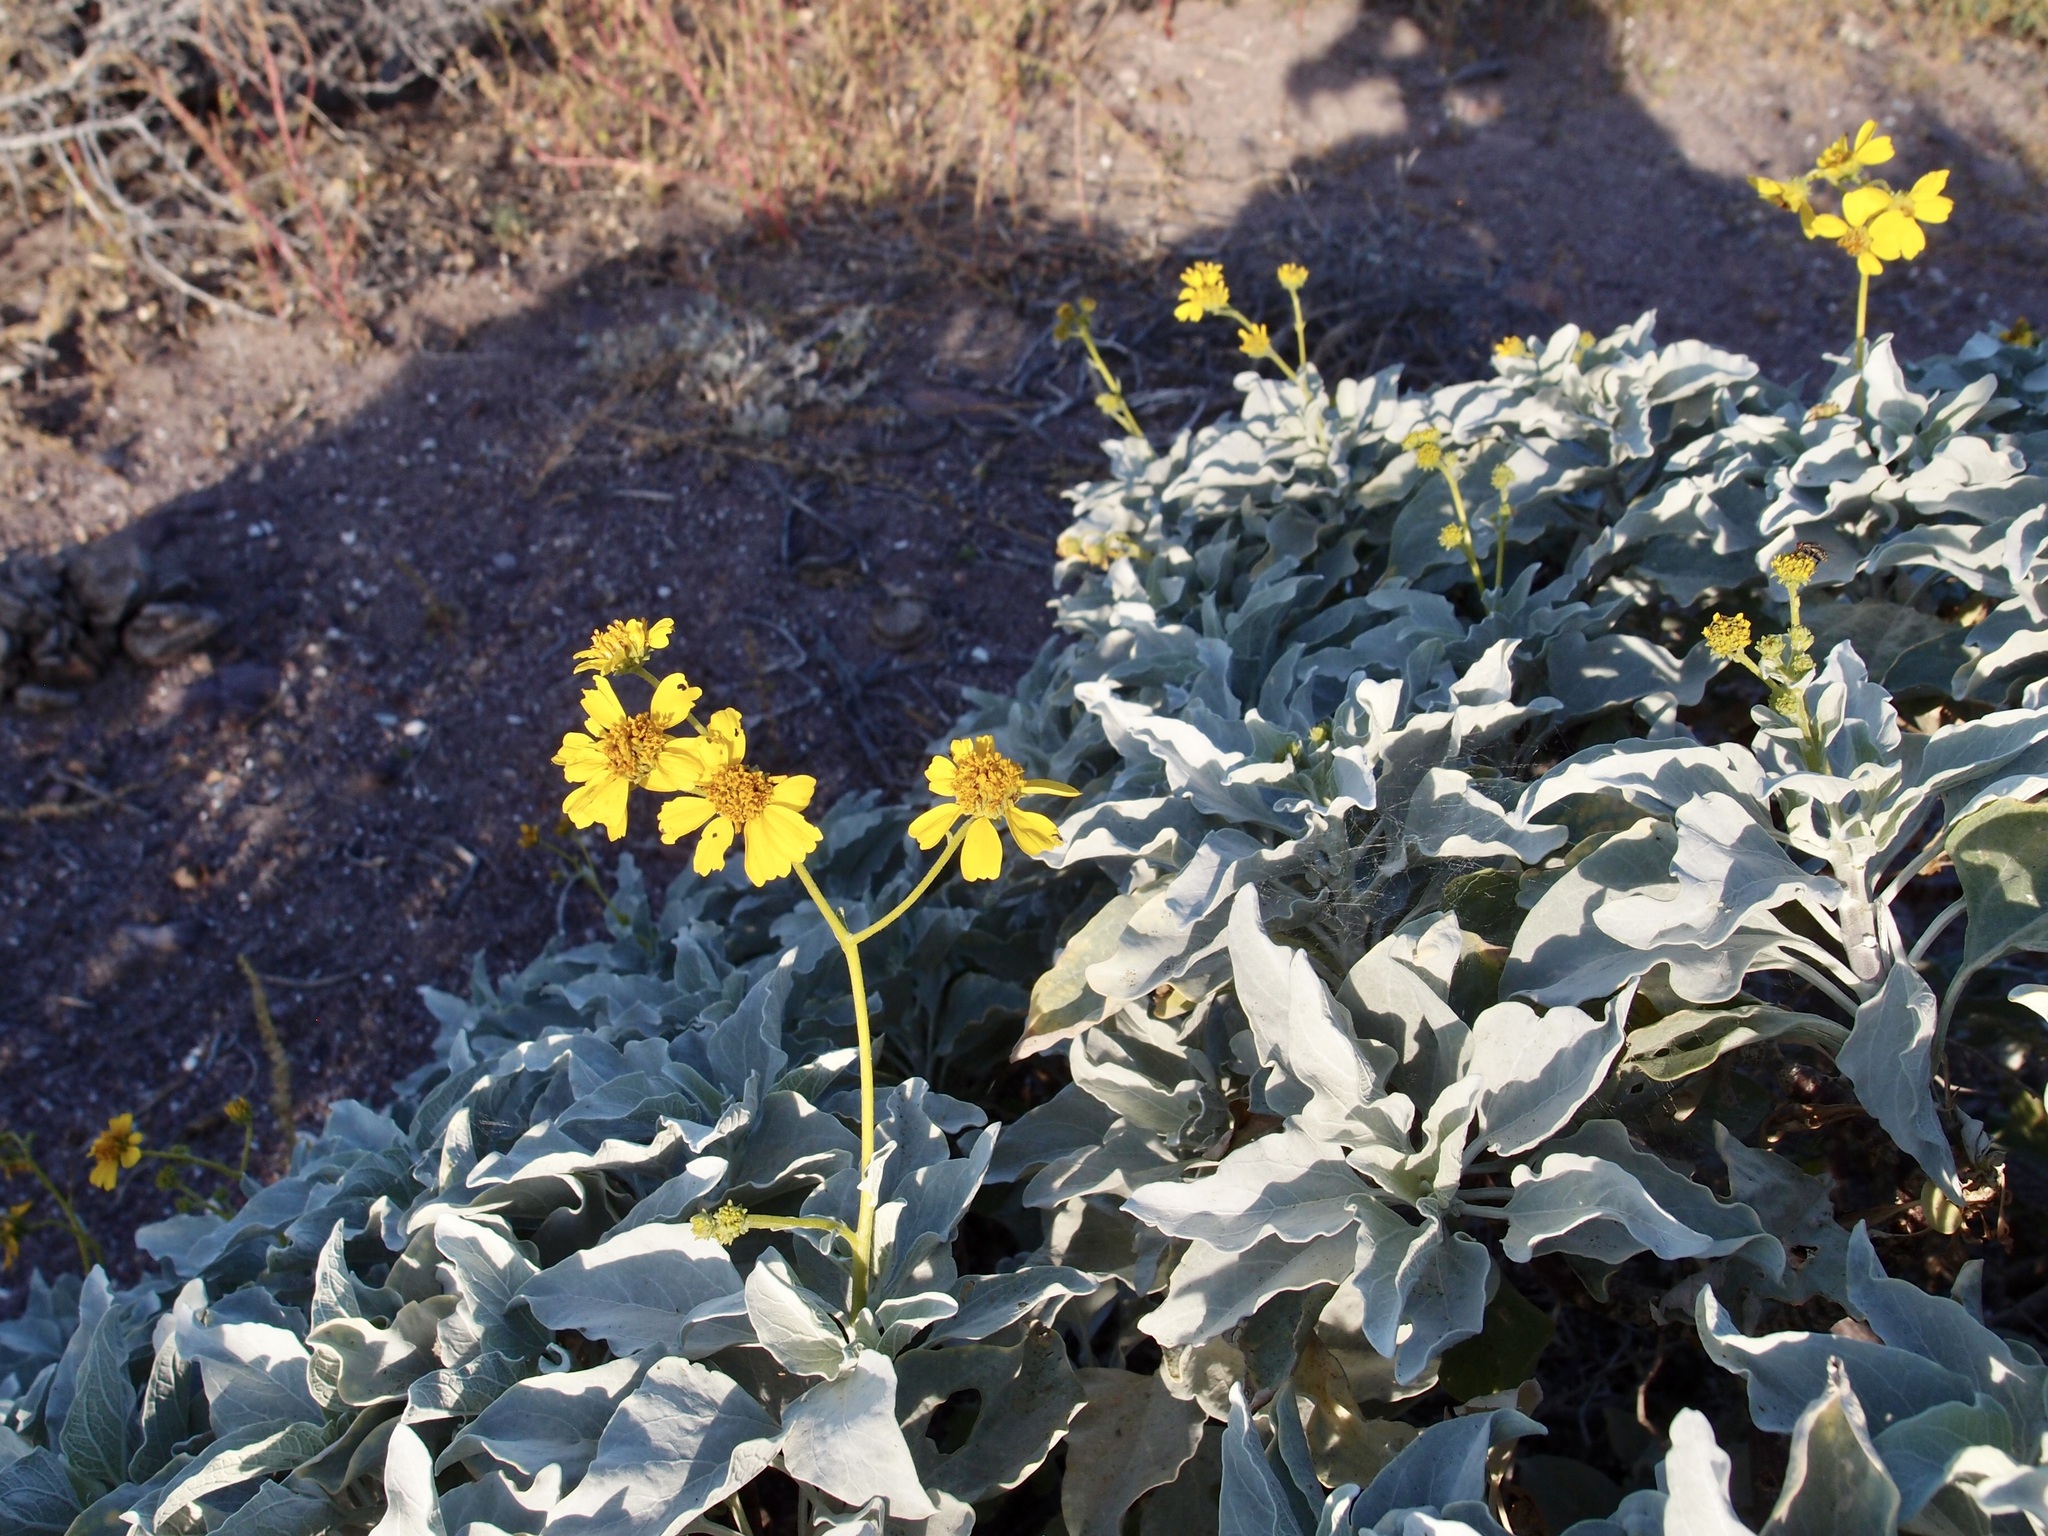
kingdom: Plantae
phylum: Tracheophyta
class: Magnoliopsida
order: Asterales
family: Asteraceae
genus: Encelia
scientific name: Encelia farinosa
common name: Brittlebush
